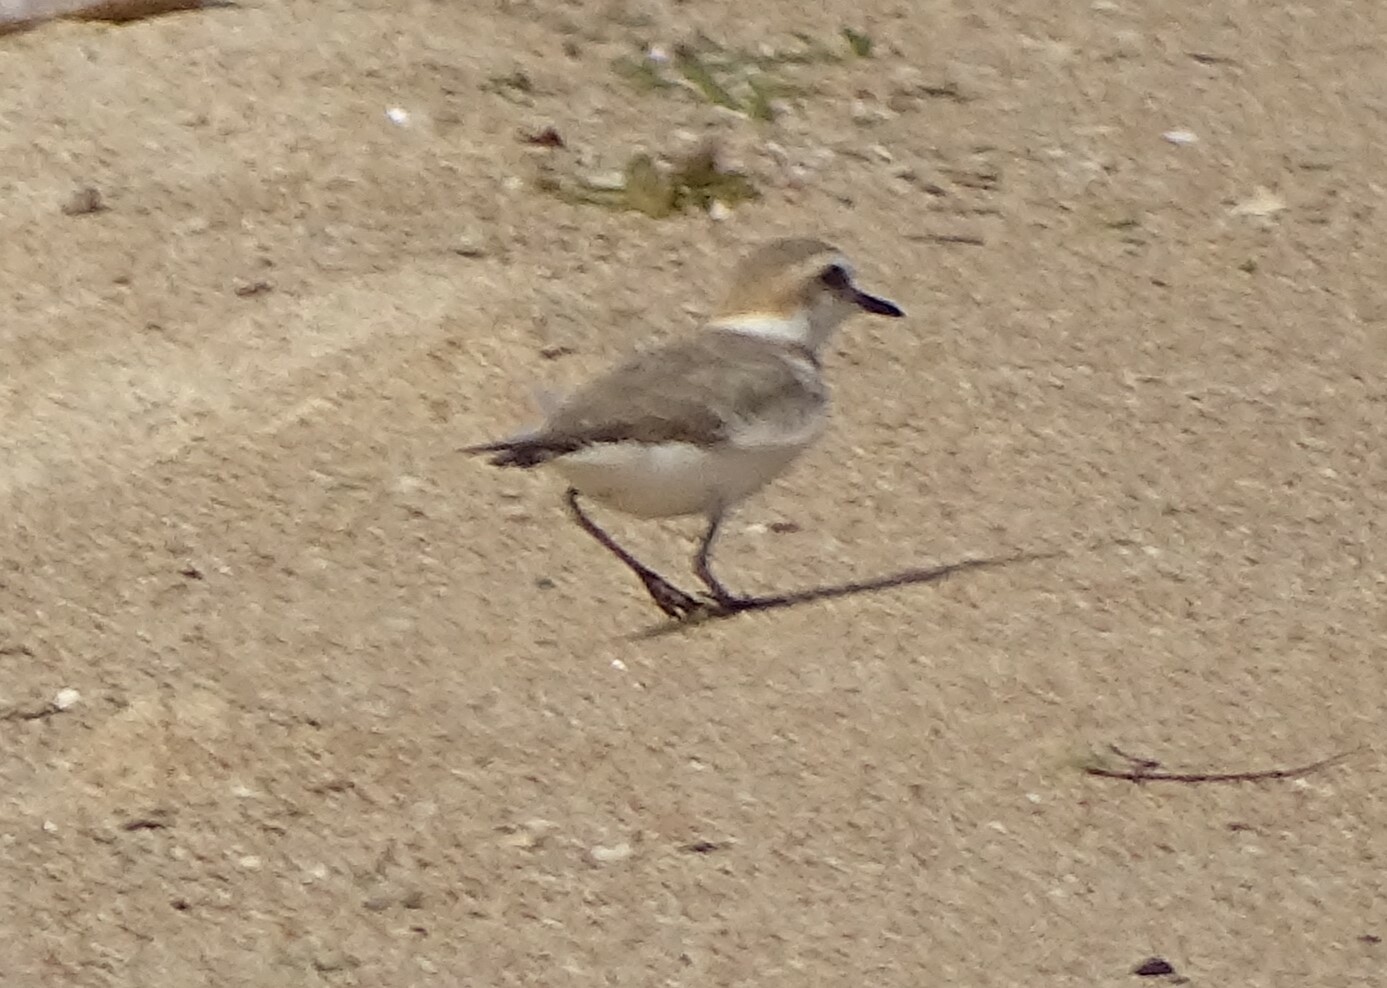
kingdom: Animalia
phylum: Chordata
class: Aves
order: Charadriiformes
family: Charadriidae
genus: Charadrius
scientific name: Charadrius alexandrinus
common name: Kentish plover
